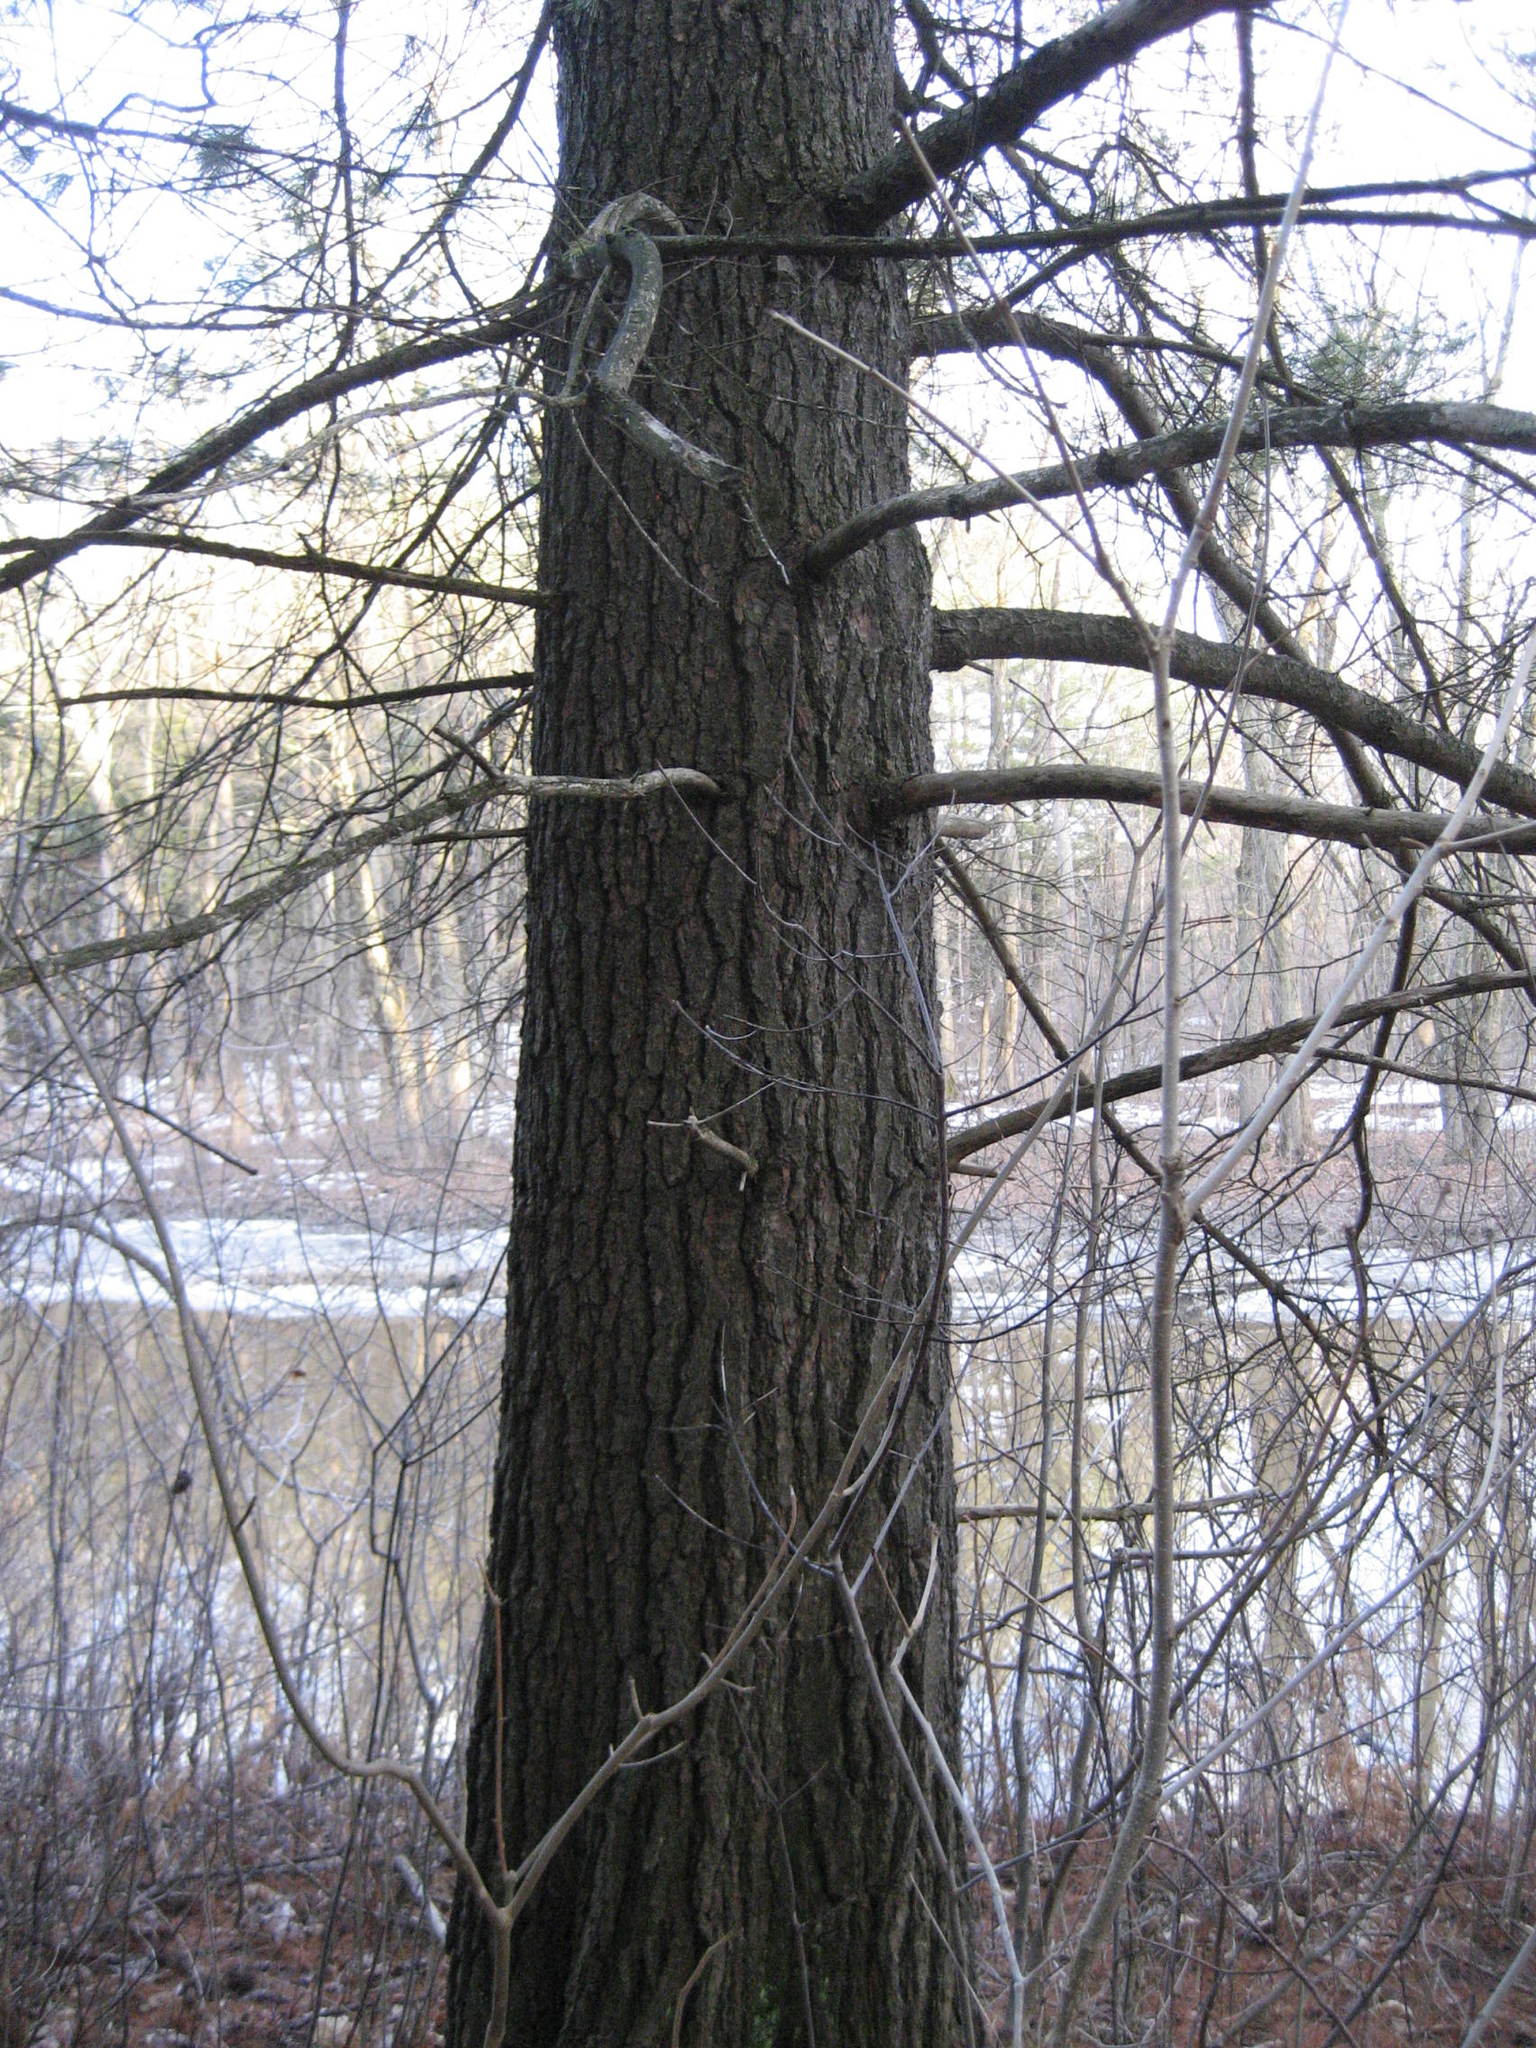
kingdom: Plantae
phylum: Tracheophyta
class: Pinopsida
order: Pinales
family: Pinaceae
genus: Pinus
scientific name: Pinus strobus
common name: Weymouth pine
